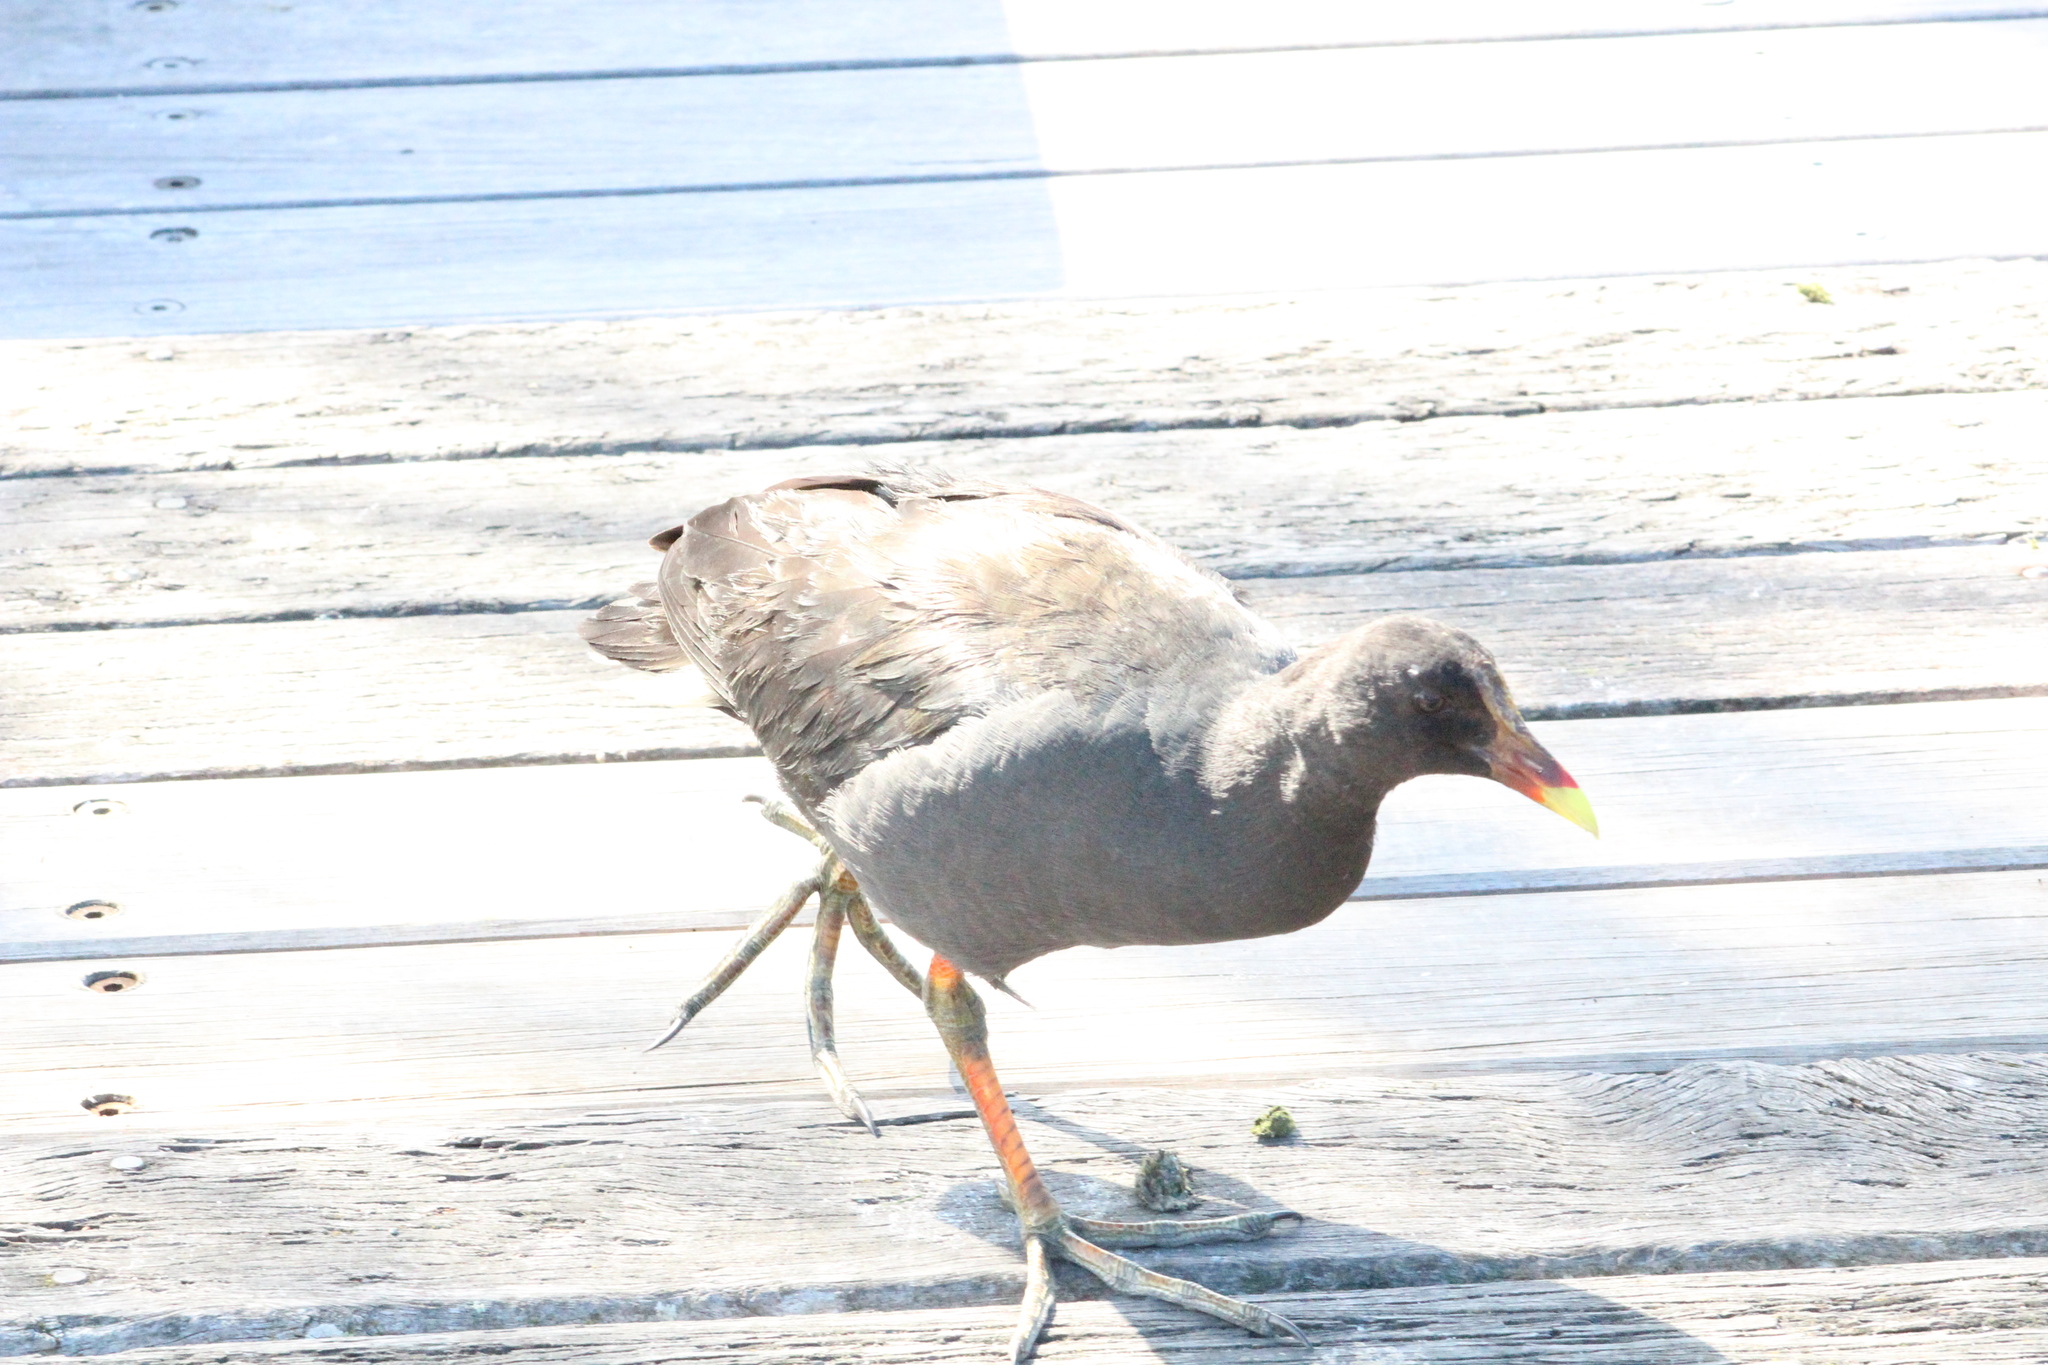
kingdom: Animalia
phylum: Chordata
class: Aves
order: Gruiformes
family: Rallidae
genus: Gallinula
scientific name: Gallinula tenebrosa
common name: Dusky moorhen
